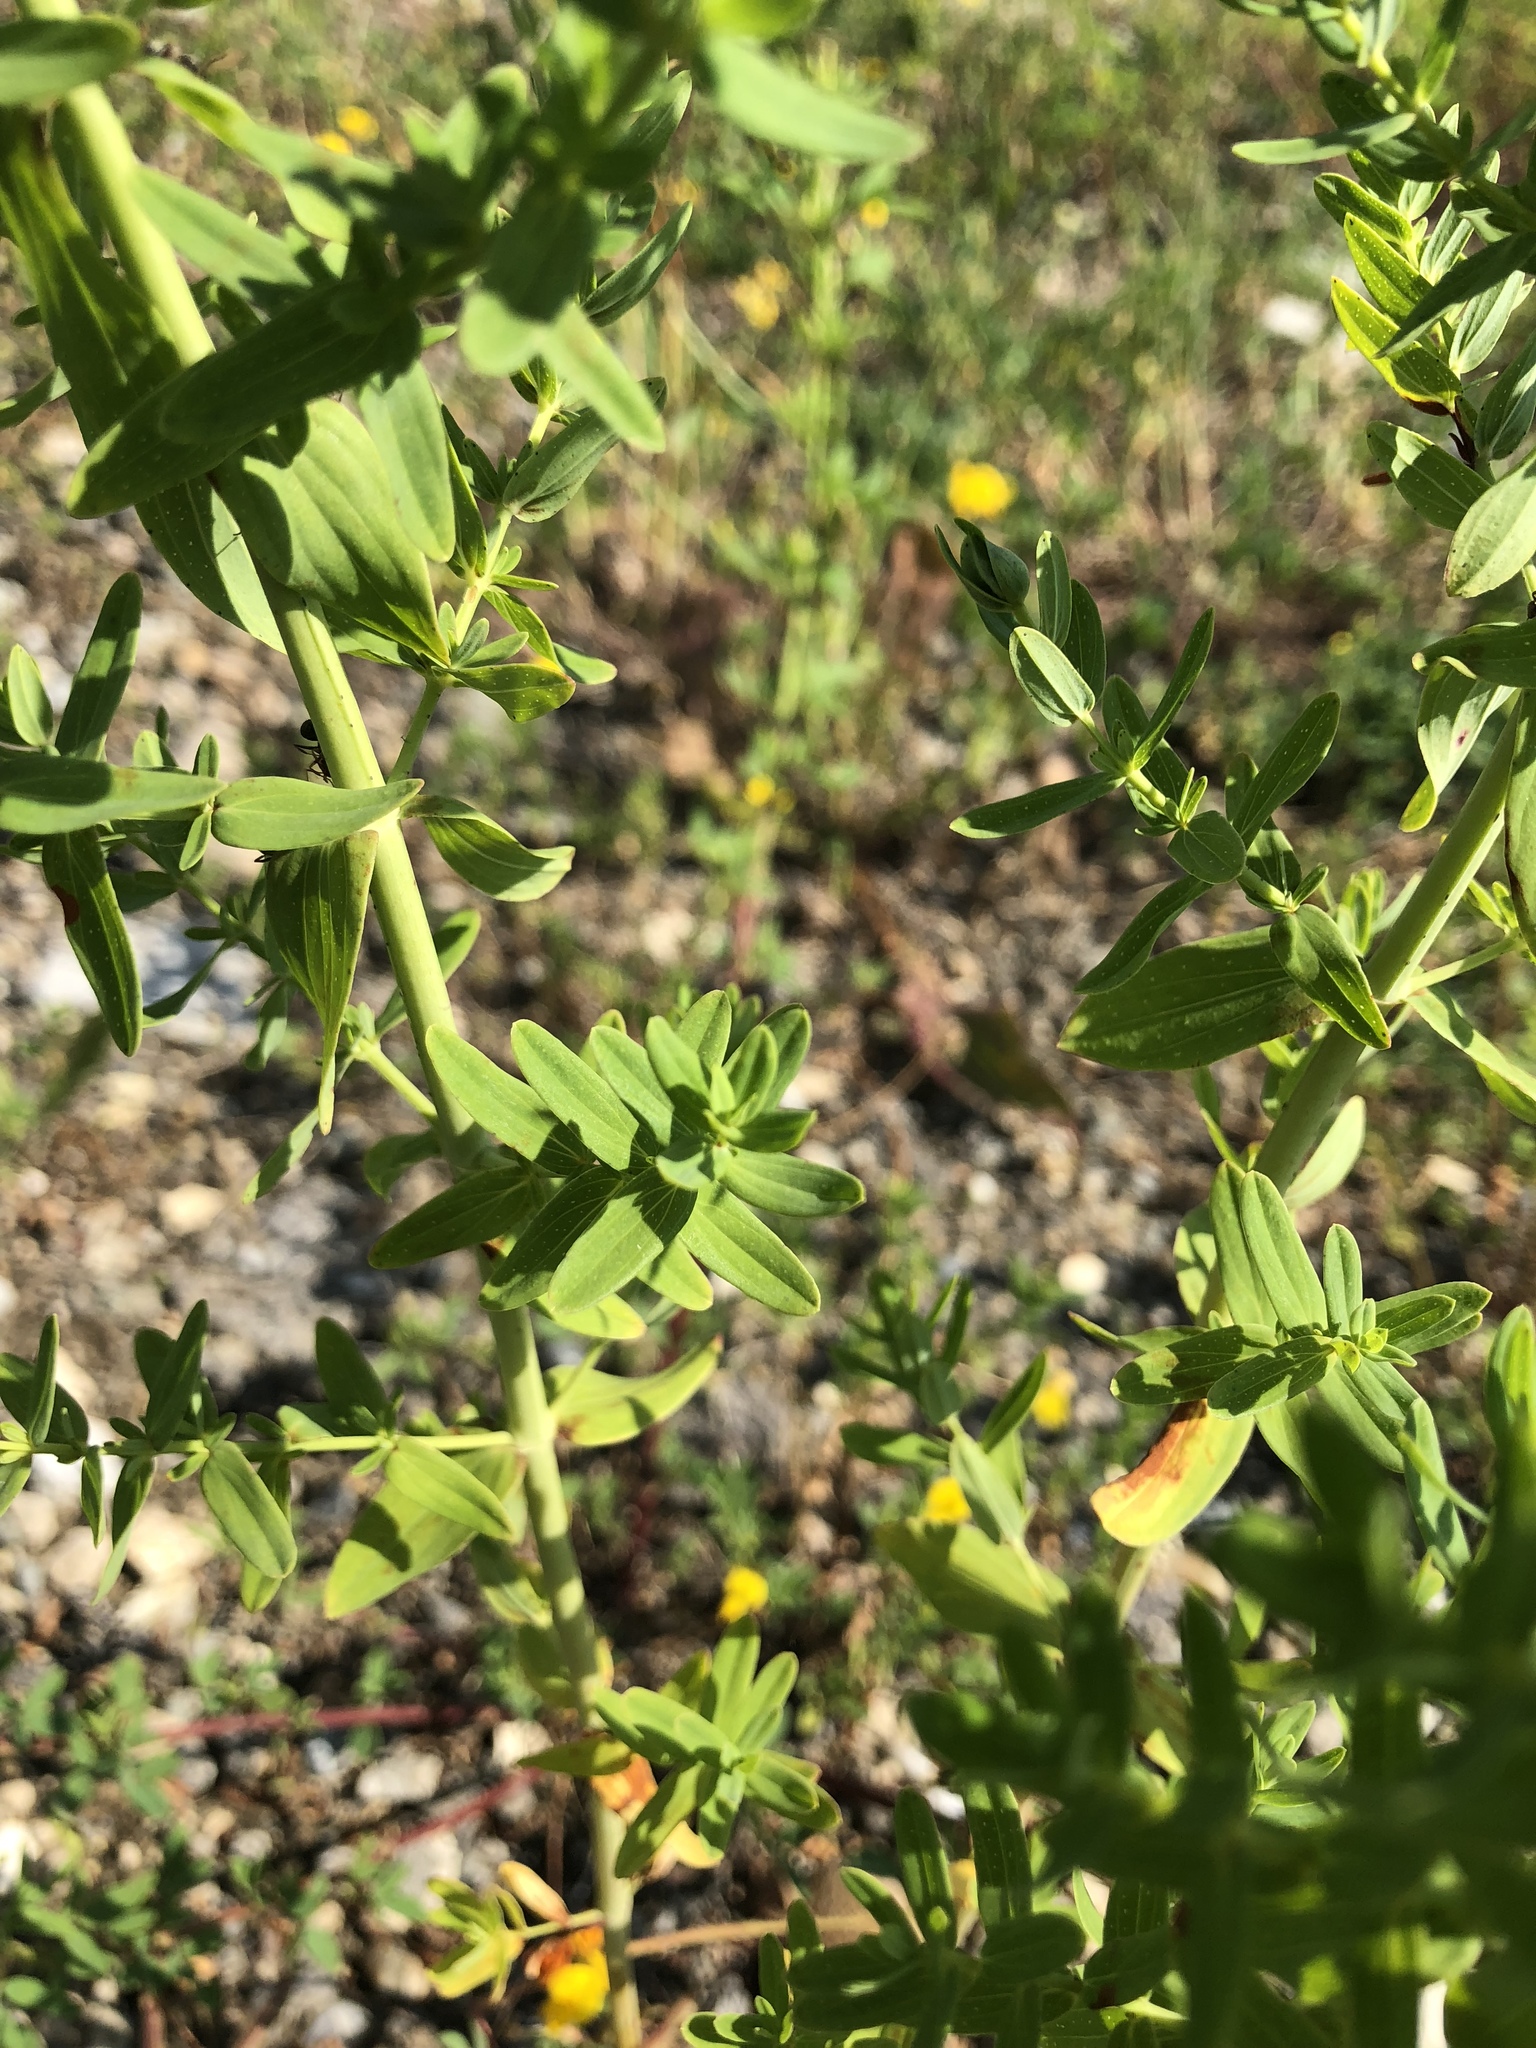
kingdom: Plantae
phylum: Tracheophyta
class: Magnoliopsida
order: Malpighiales
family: Hypericaceae
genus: Hypericum
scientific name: Hypericum perforatum
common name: Common st. johnswort
